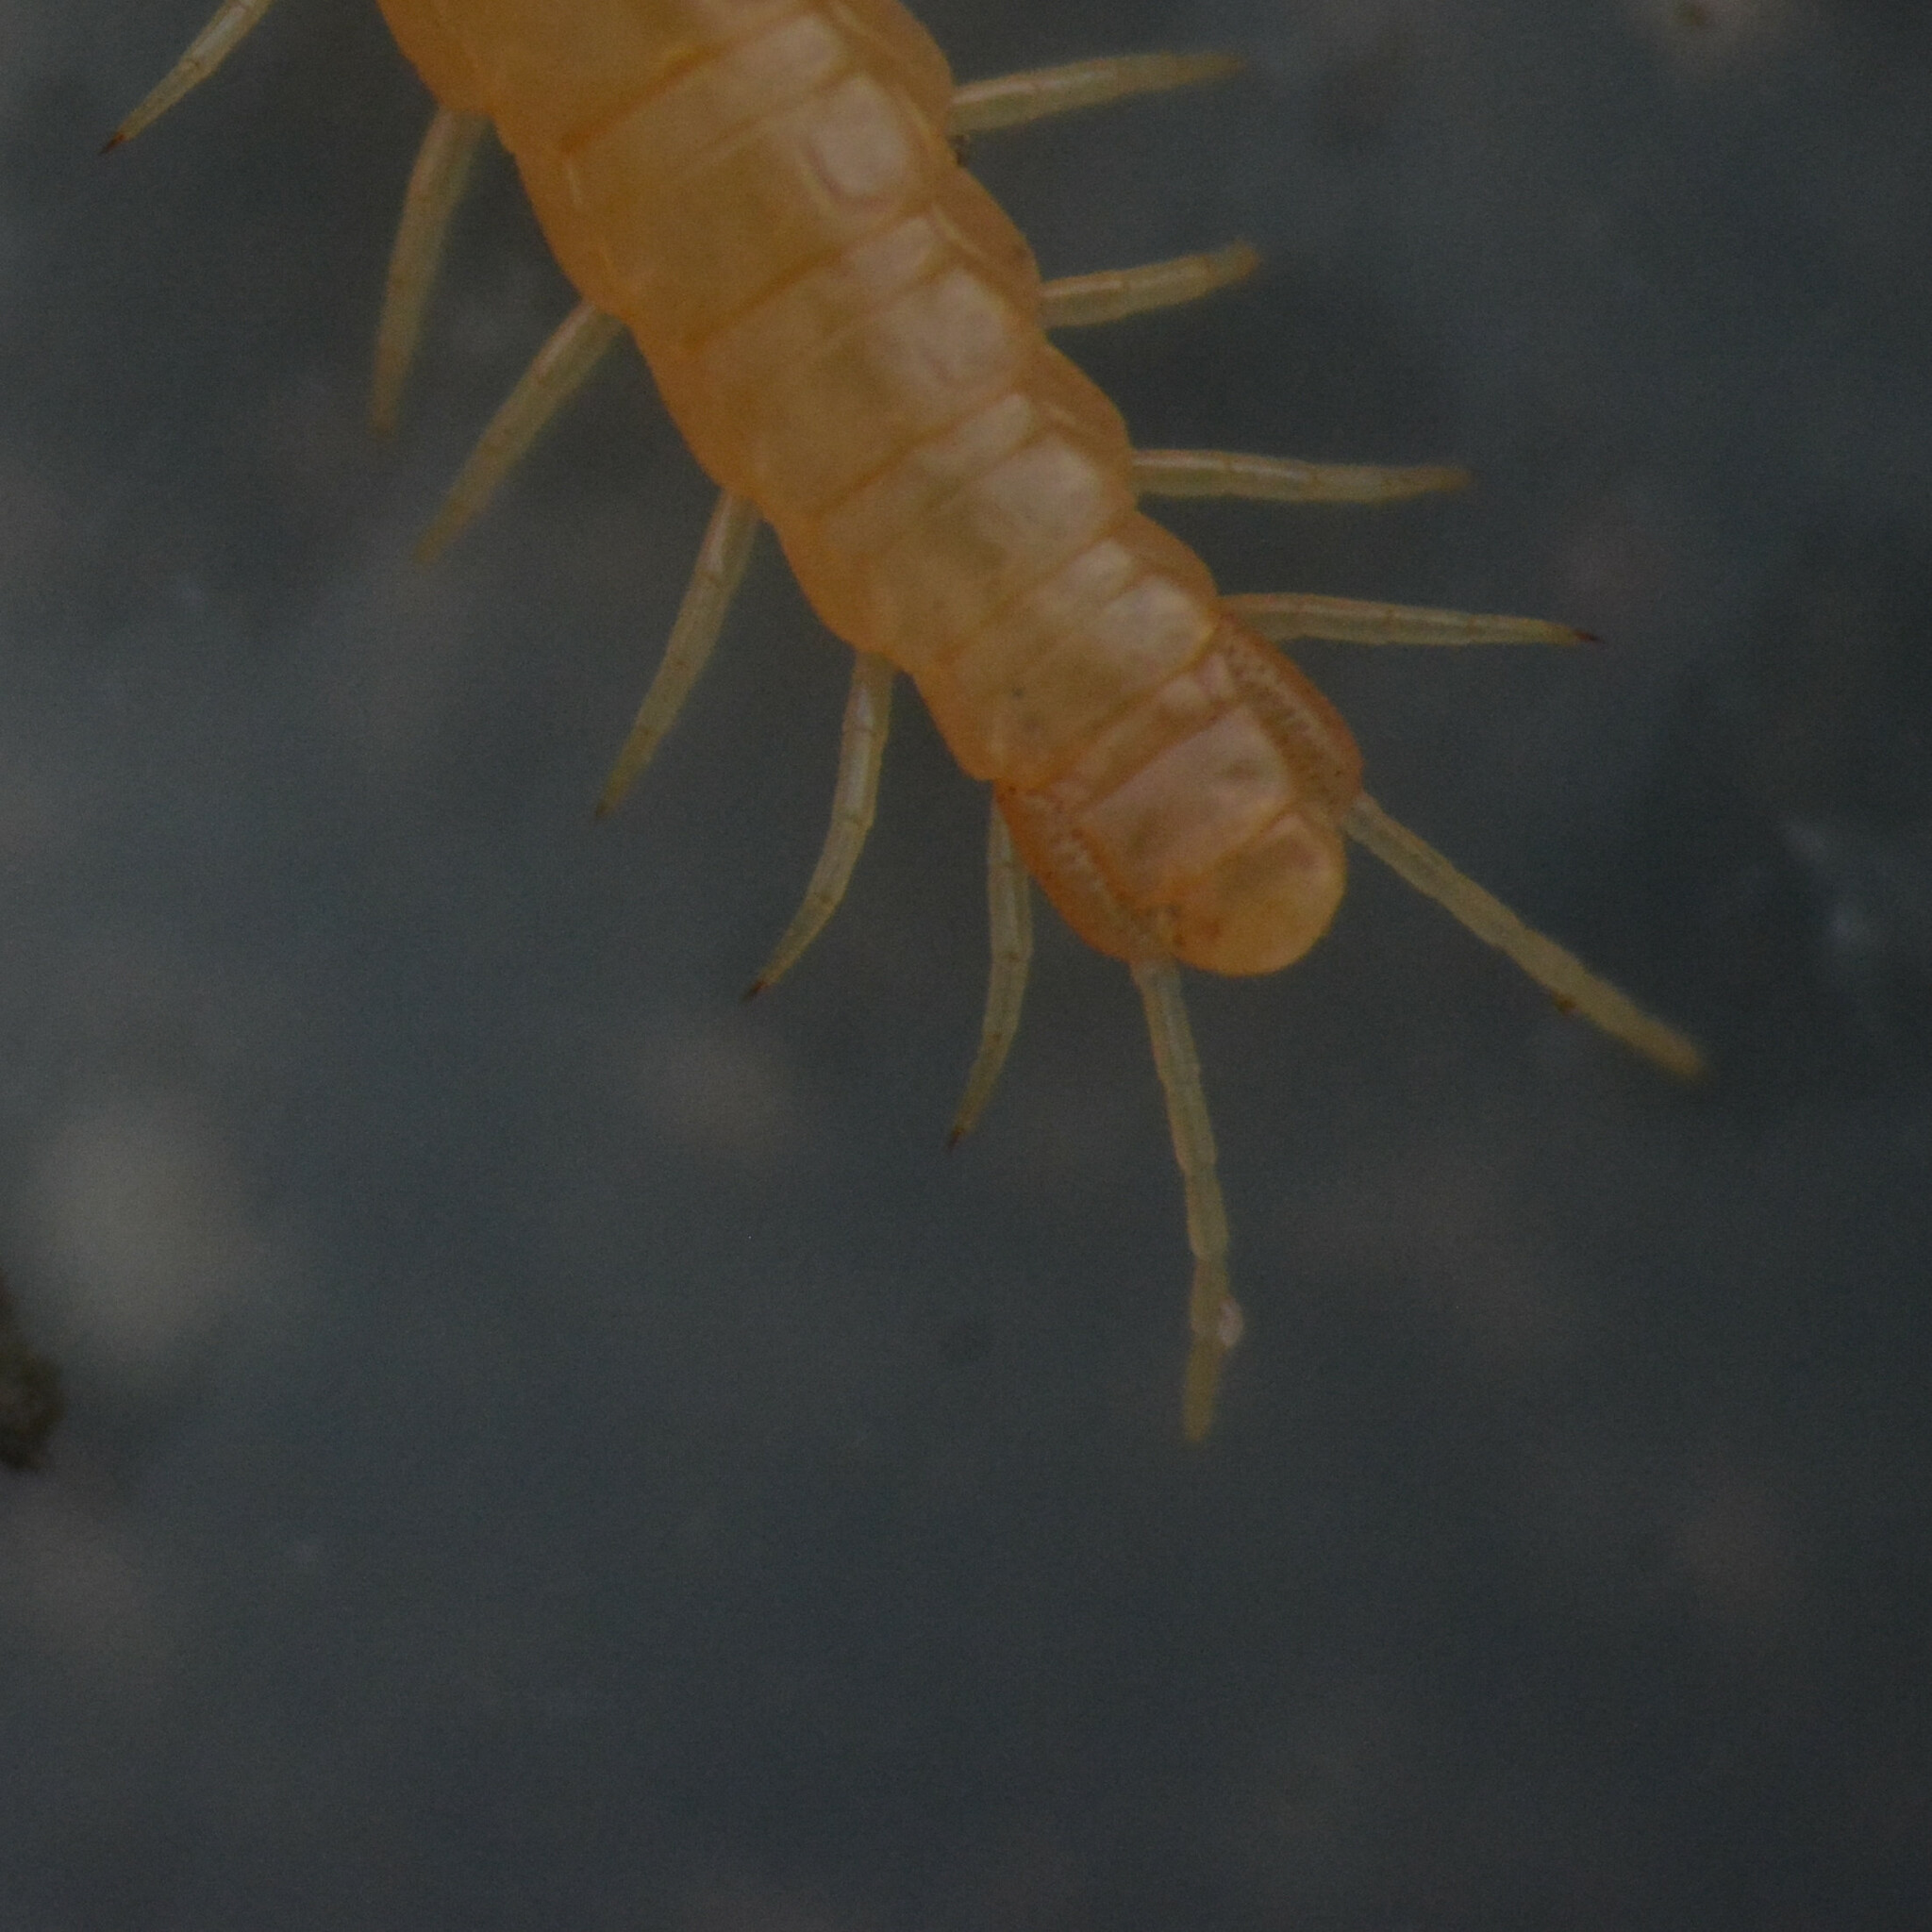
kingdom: Animalia
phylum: Arthropoda
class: Chilopoda
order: Geophilomorpha
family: Himantariidae
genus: Stigmatogaster
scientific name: Stigmatogaster subterranea
